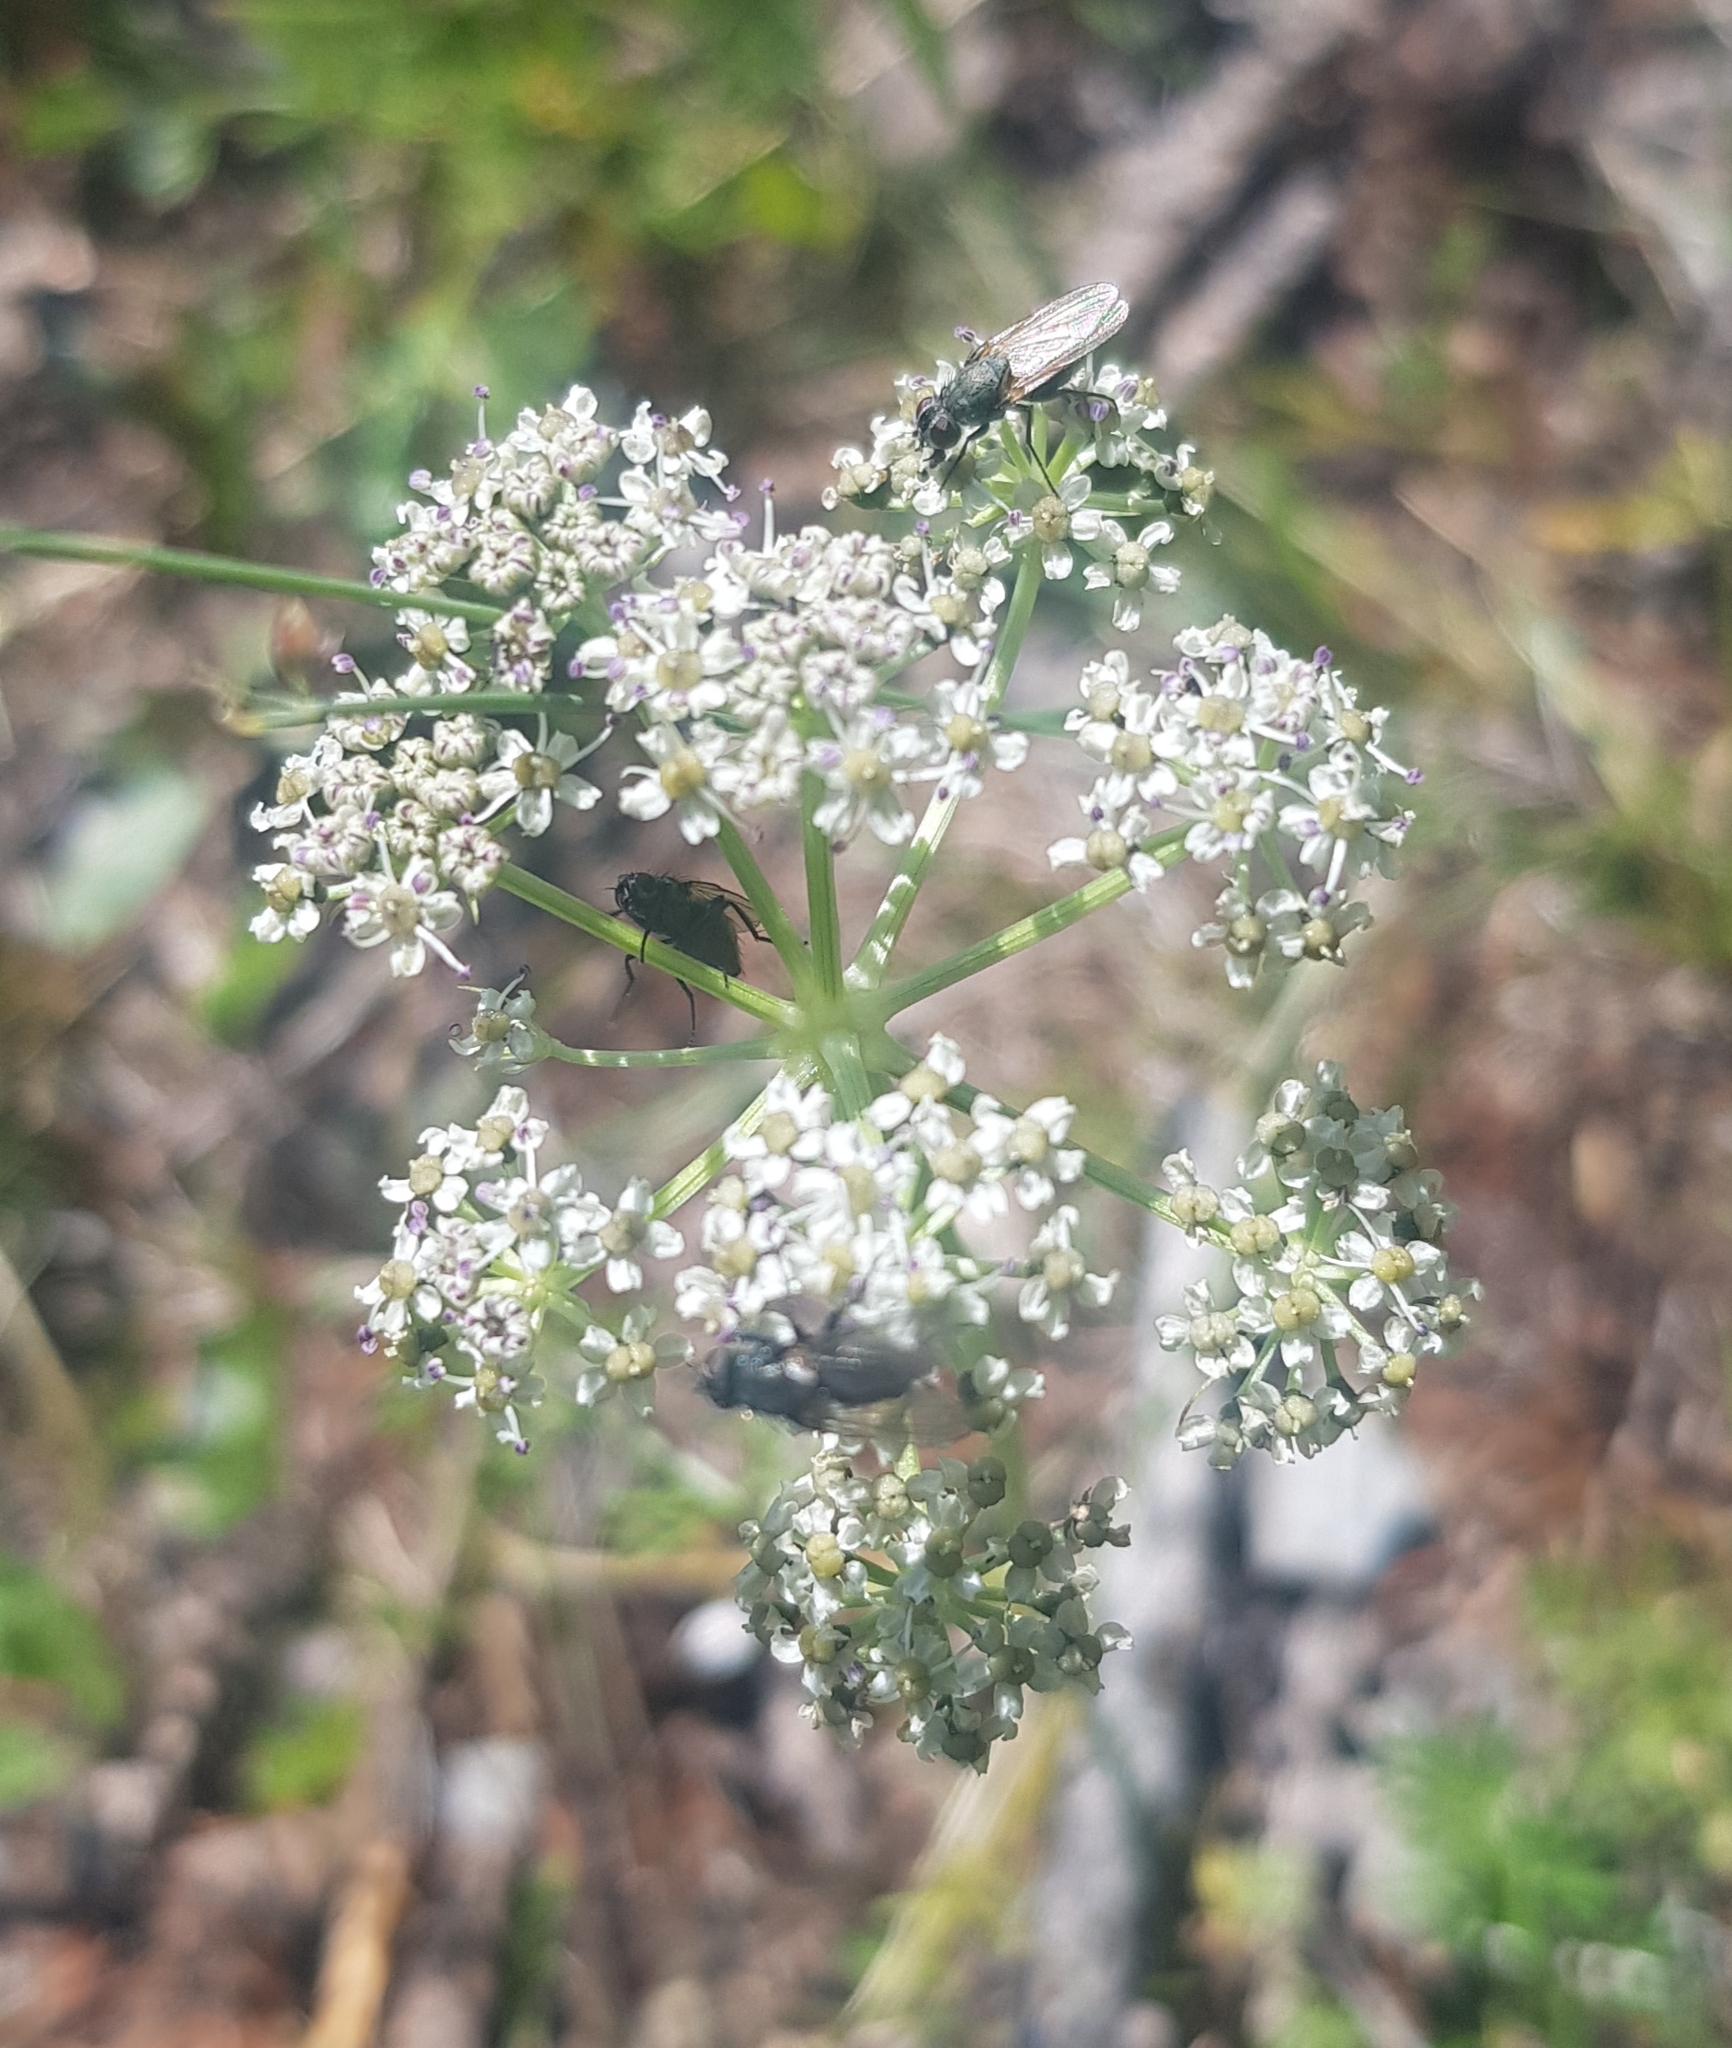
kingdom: Plantae
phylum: Tracheophyta
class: Magnoliopsida
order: Apiales
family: Apiaceae
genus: Aegopodium
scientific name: Aegopodium alpestre
